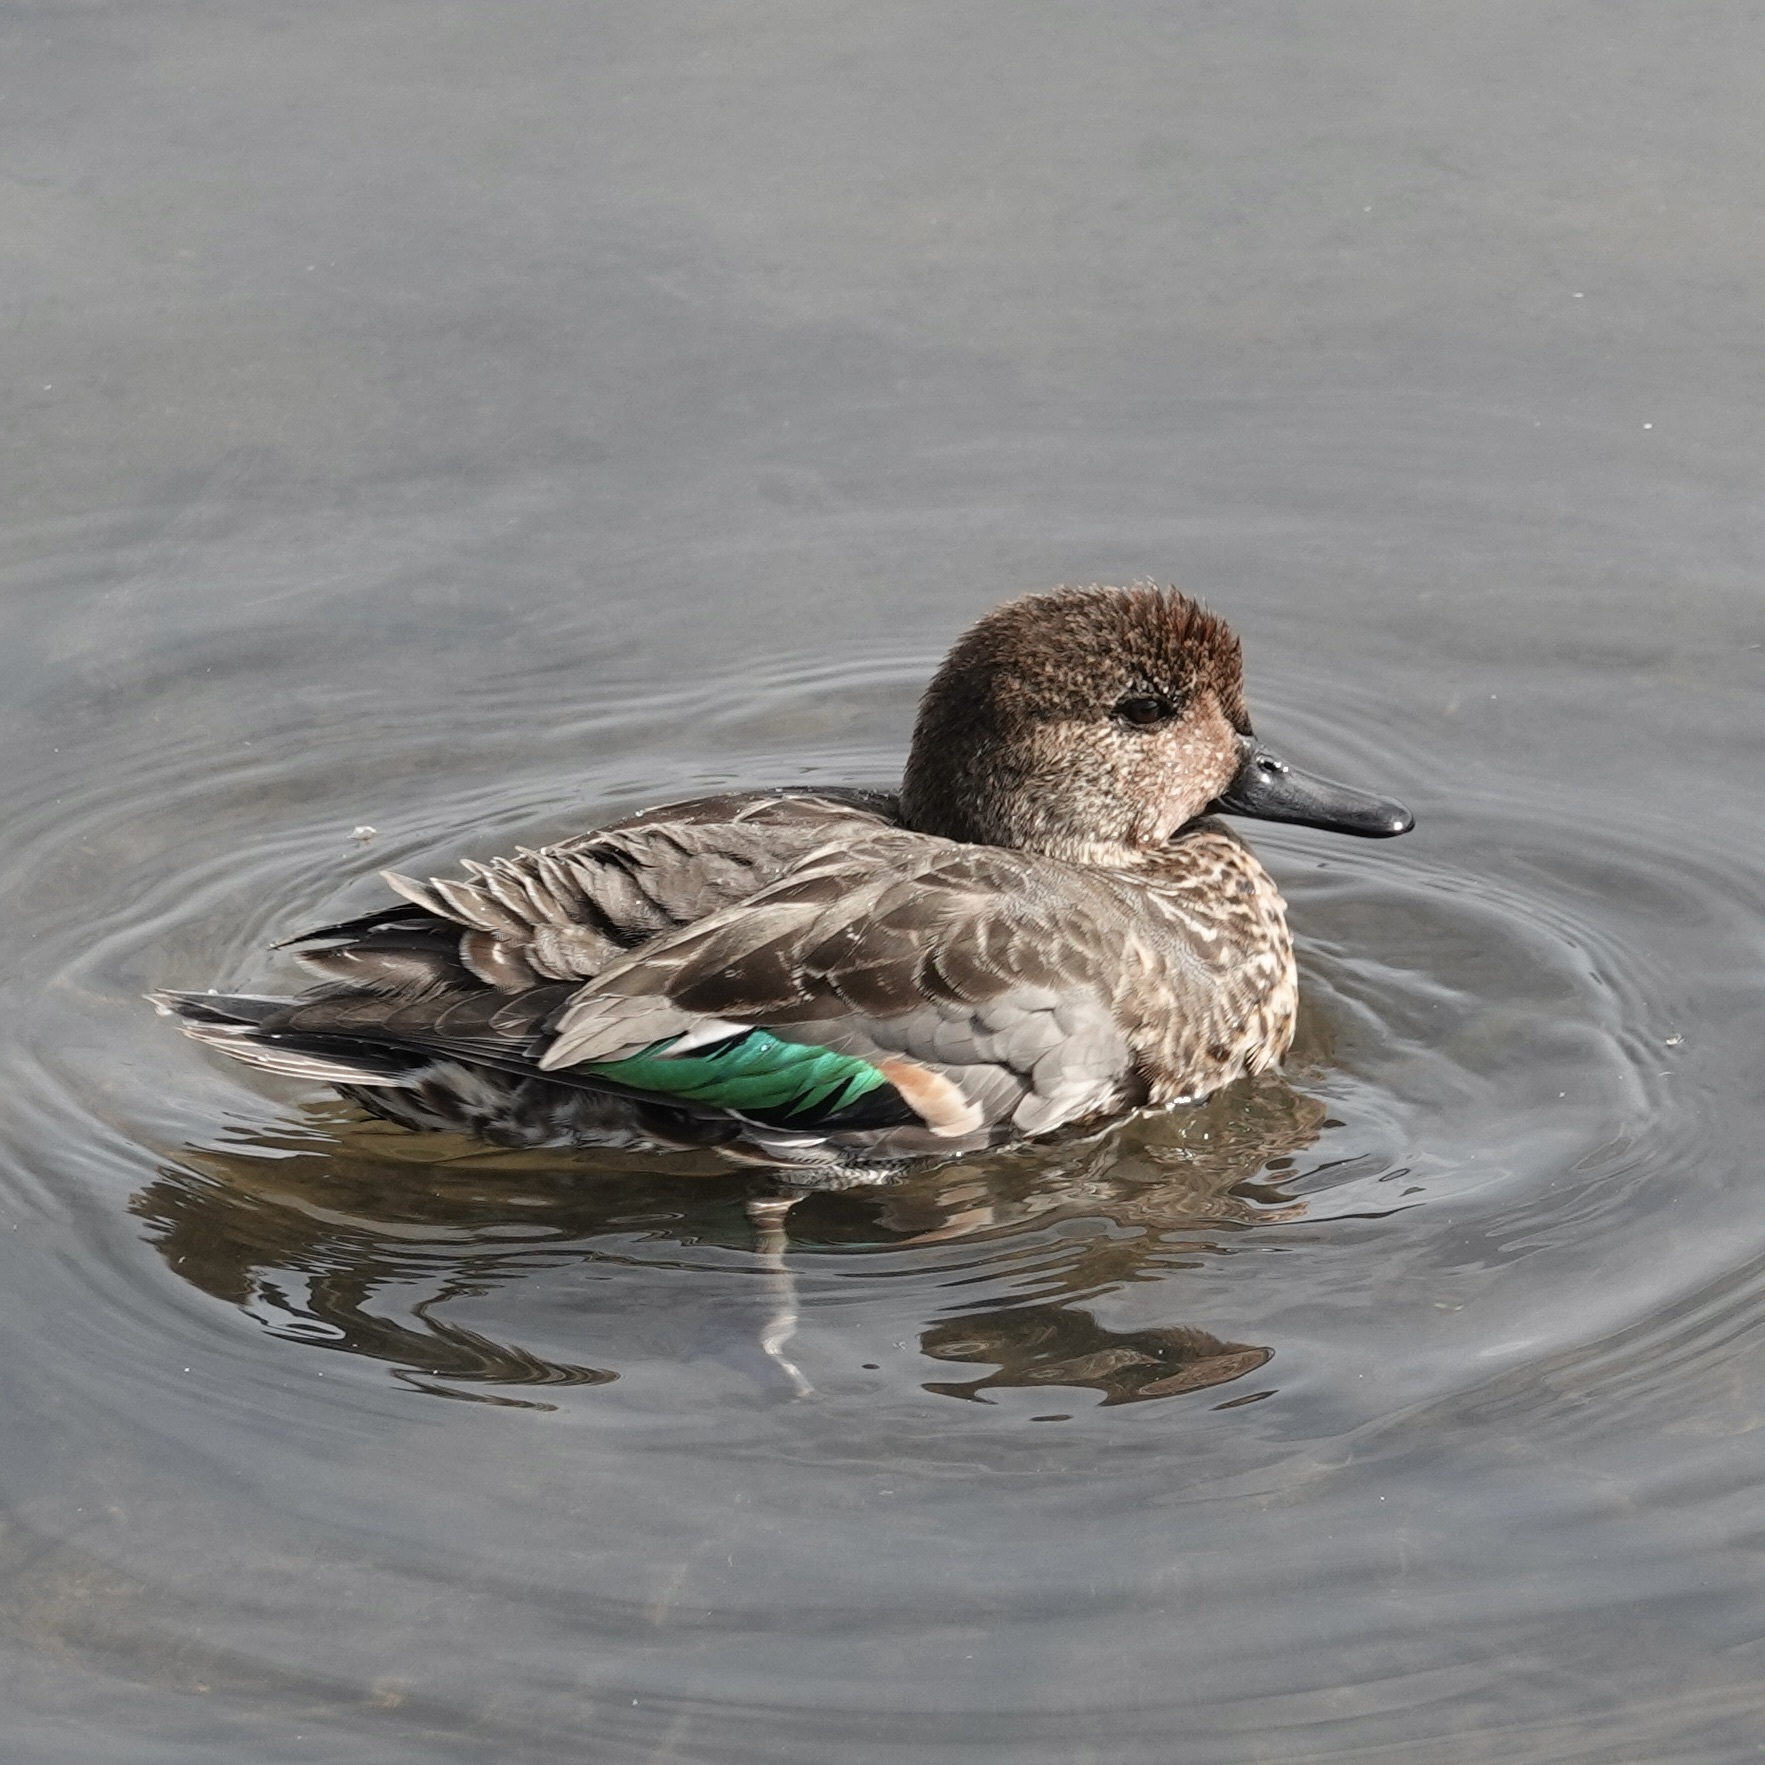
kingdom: Animalia
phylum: Chordata
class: Aves
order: Anseriformes
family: Anatidae
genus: Anas
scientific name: Anas crecca
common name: Eurasian teal
